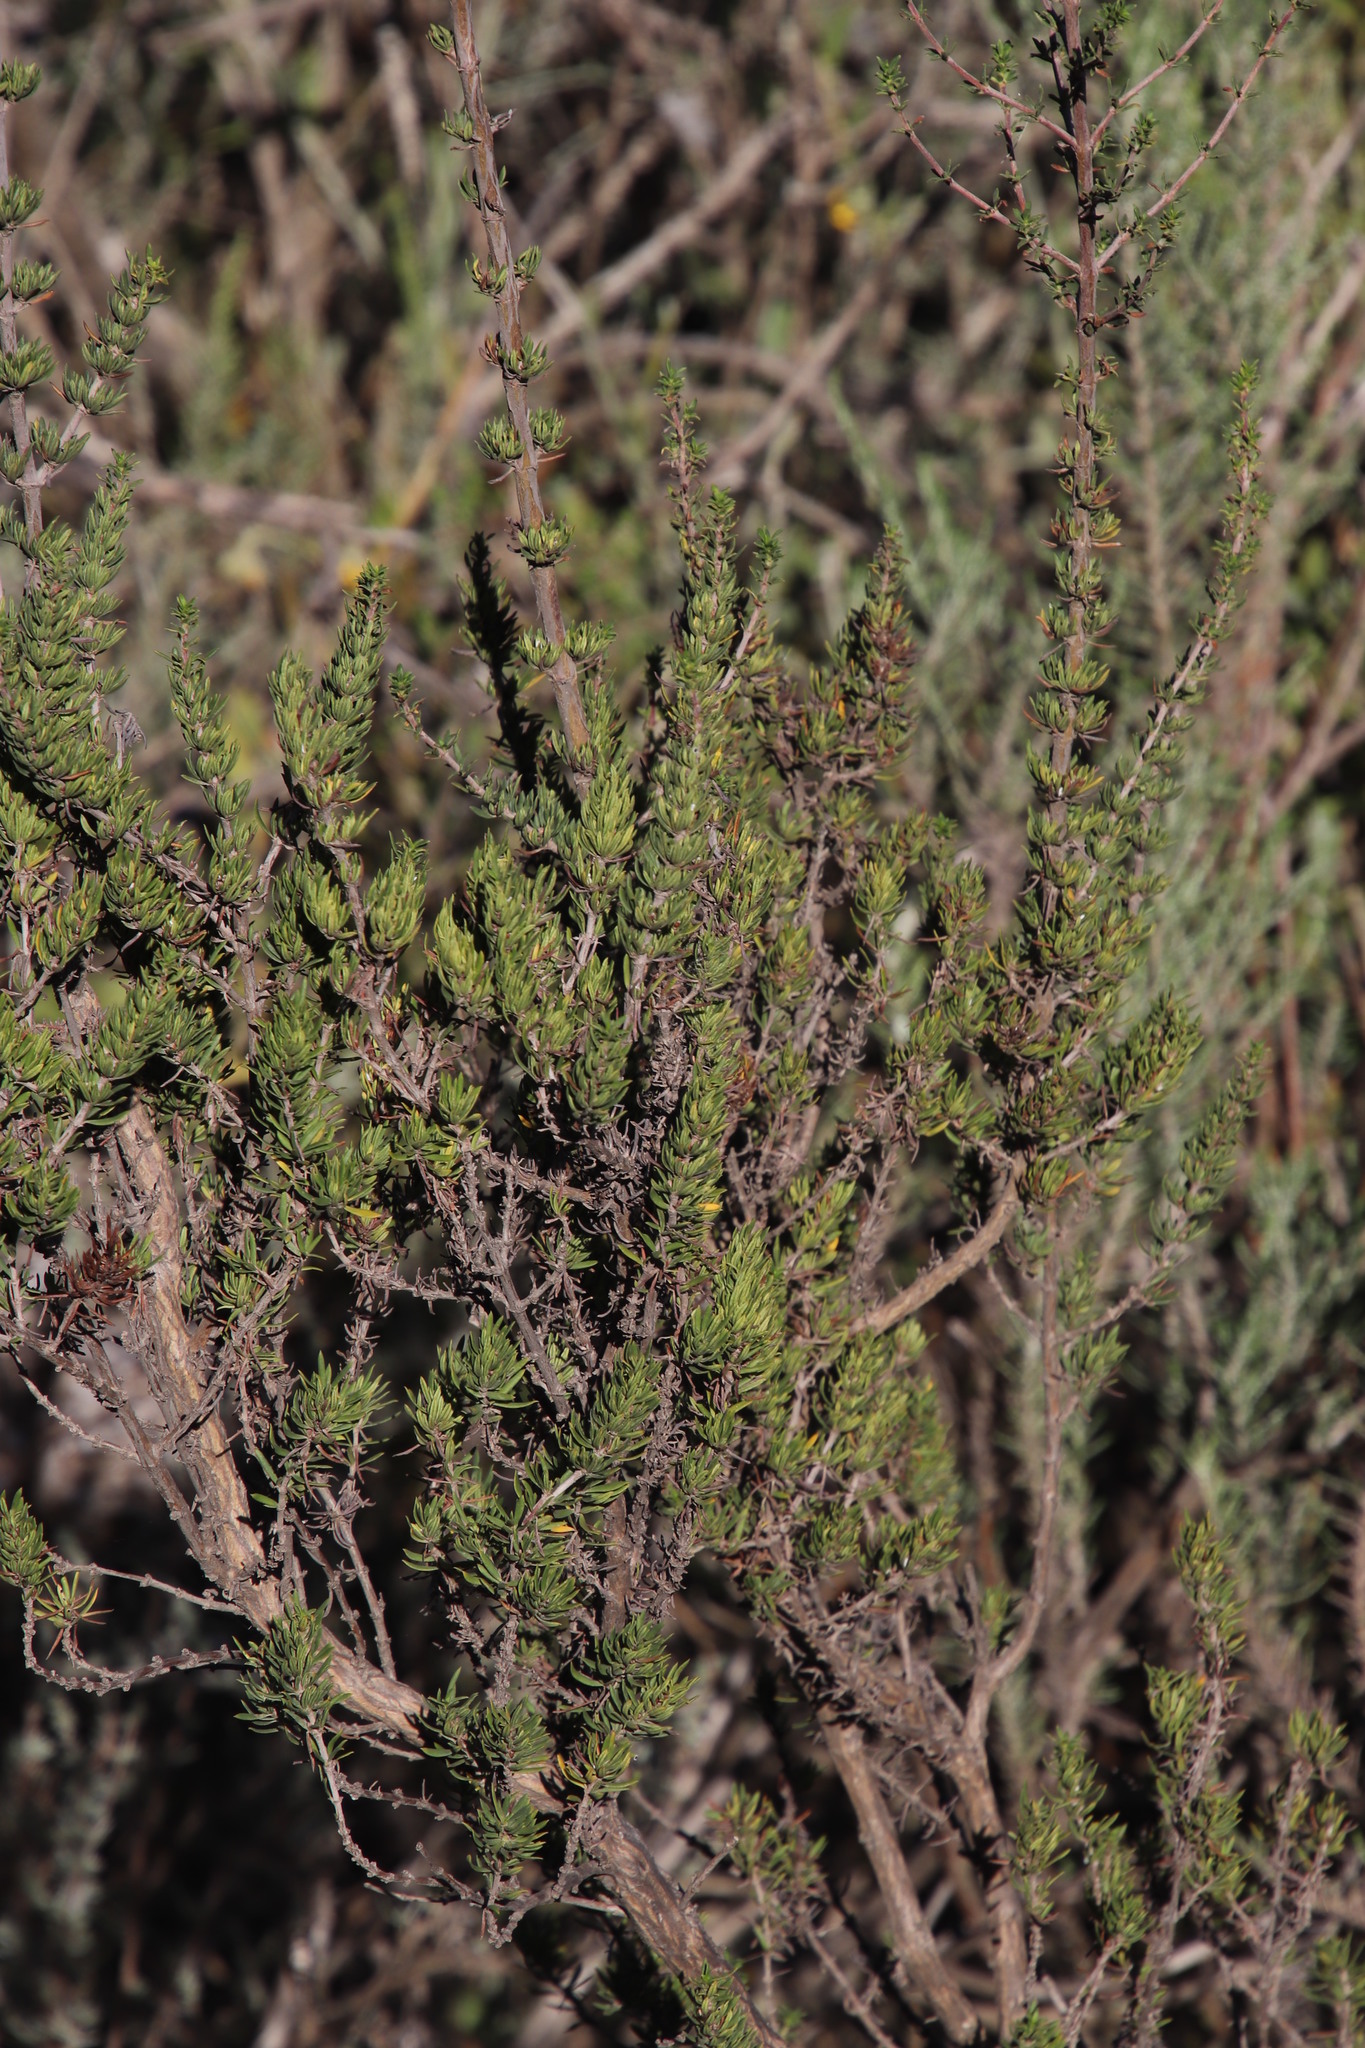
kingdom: Plantae
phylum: Tracheophyta
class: Magnoliopsida
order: Gentianales
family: Rubiaceae
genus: Anthospermum
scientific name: Anthospermum spathulatum
